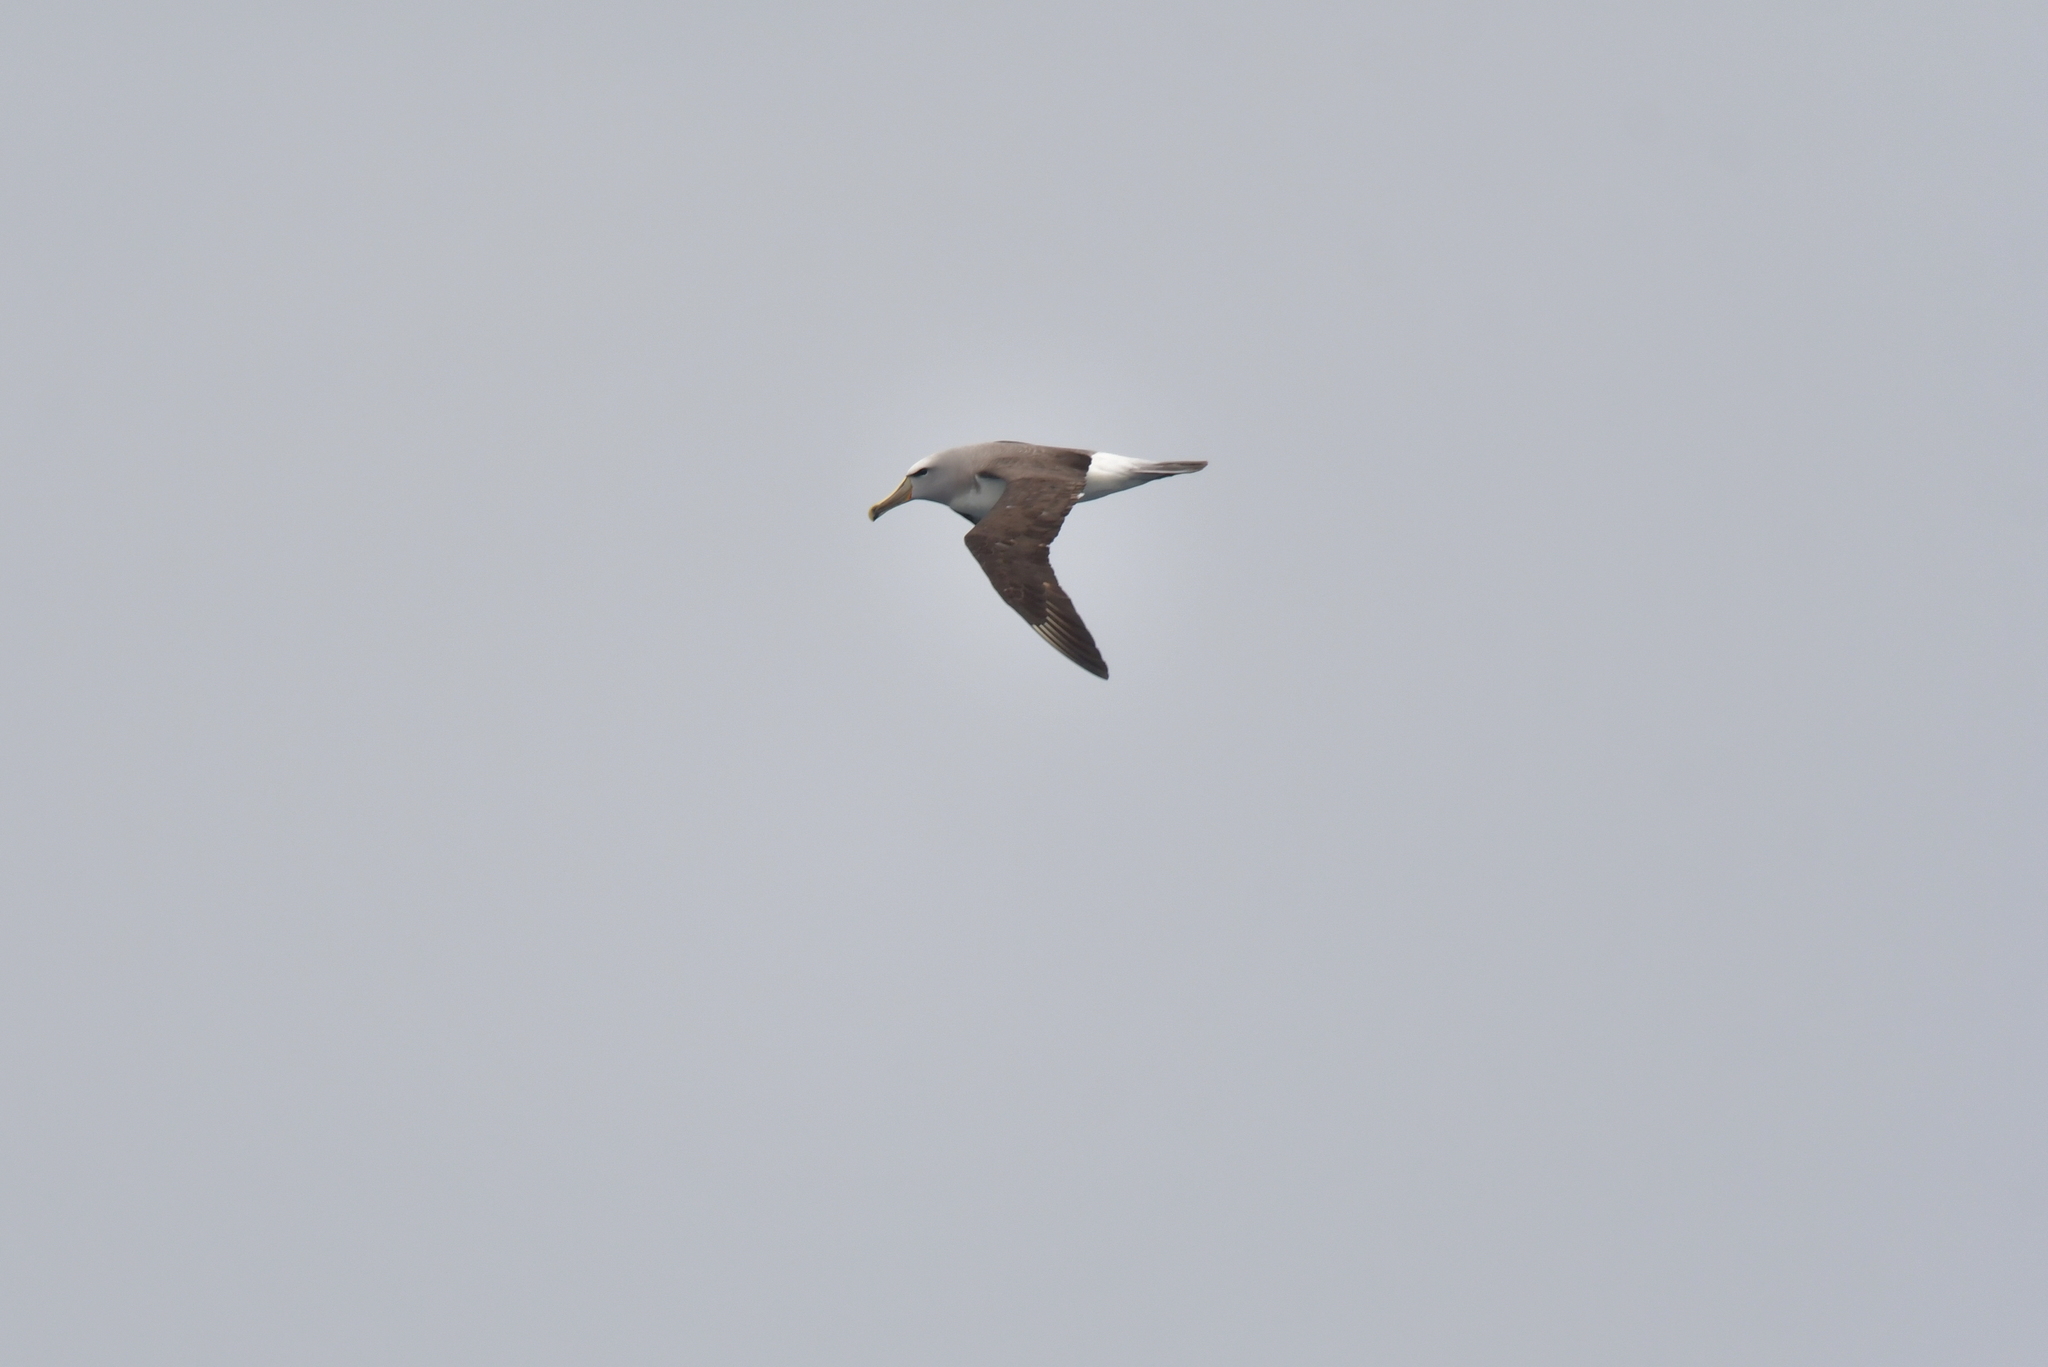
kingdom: Animalia
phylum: Chordata
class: Aves
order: Procellariiformes
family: Diomedeidae
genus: Thalassarche
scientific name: Thalassarche salvini
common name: Salvin's albatross
